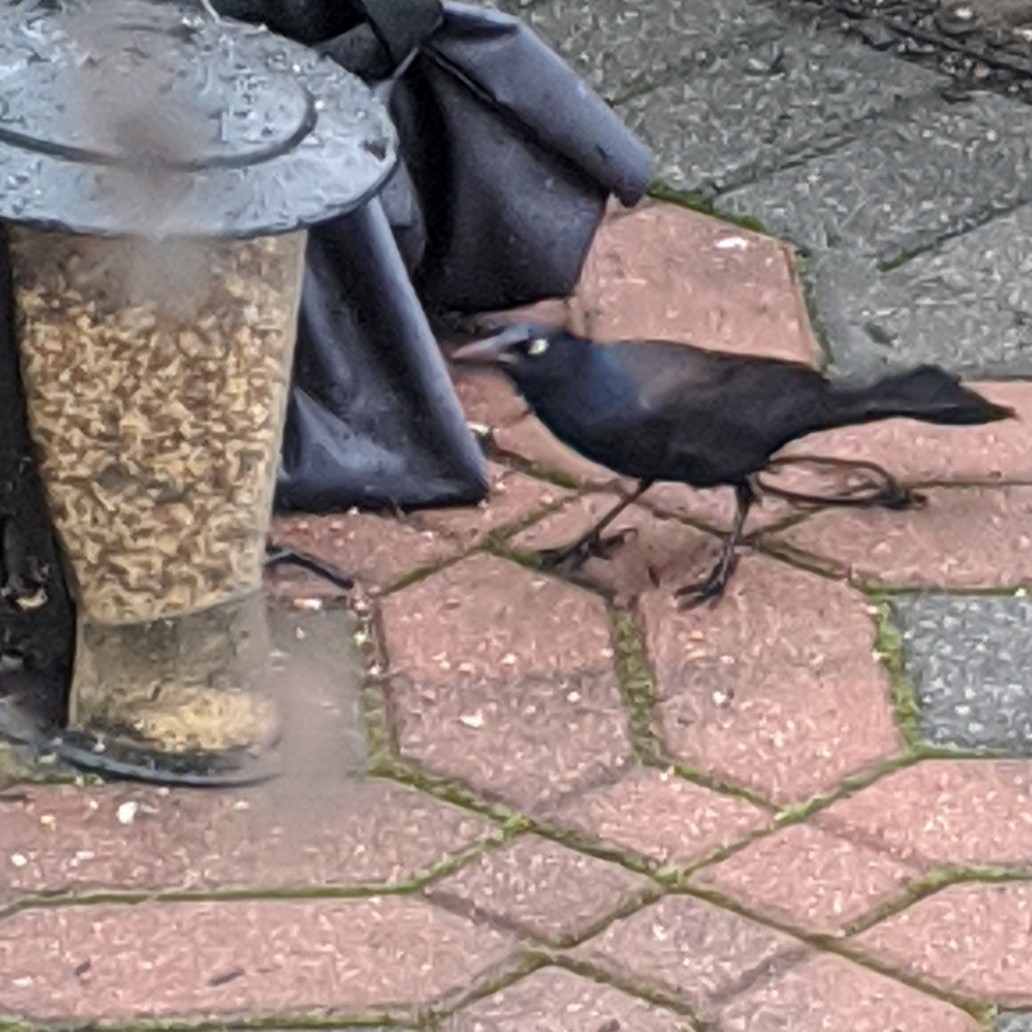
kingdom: Animalia
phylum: Chordata
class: Aves
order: Passeriformes
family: Icteridae
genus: Quiscalus
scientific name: Quiscalus quiscula
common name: Common grackle
